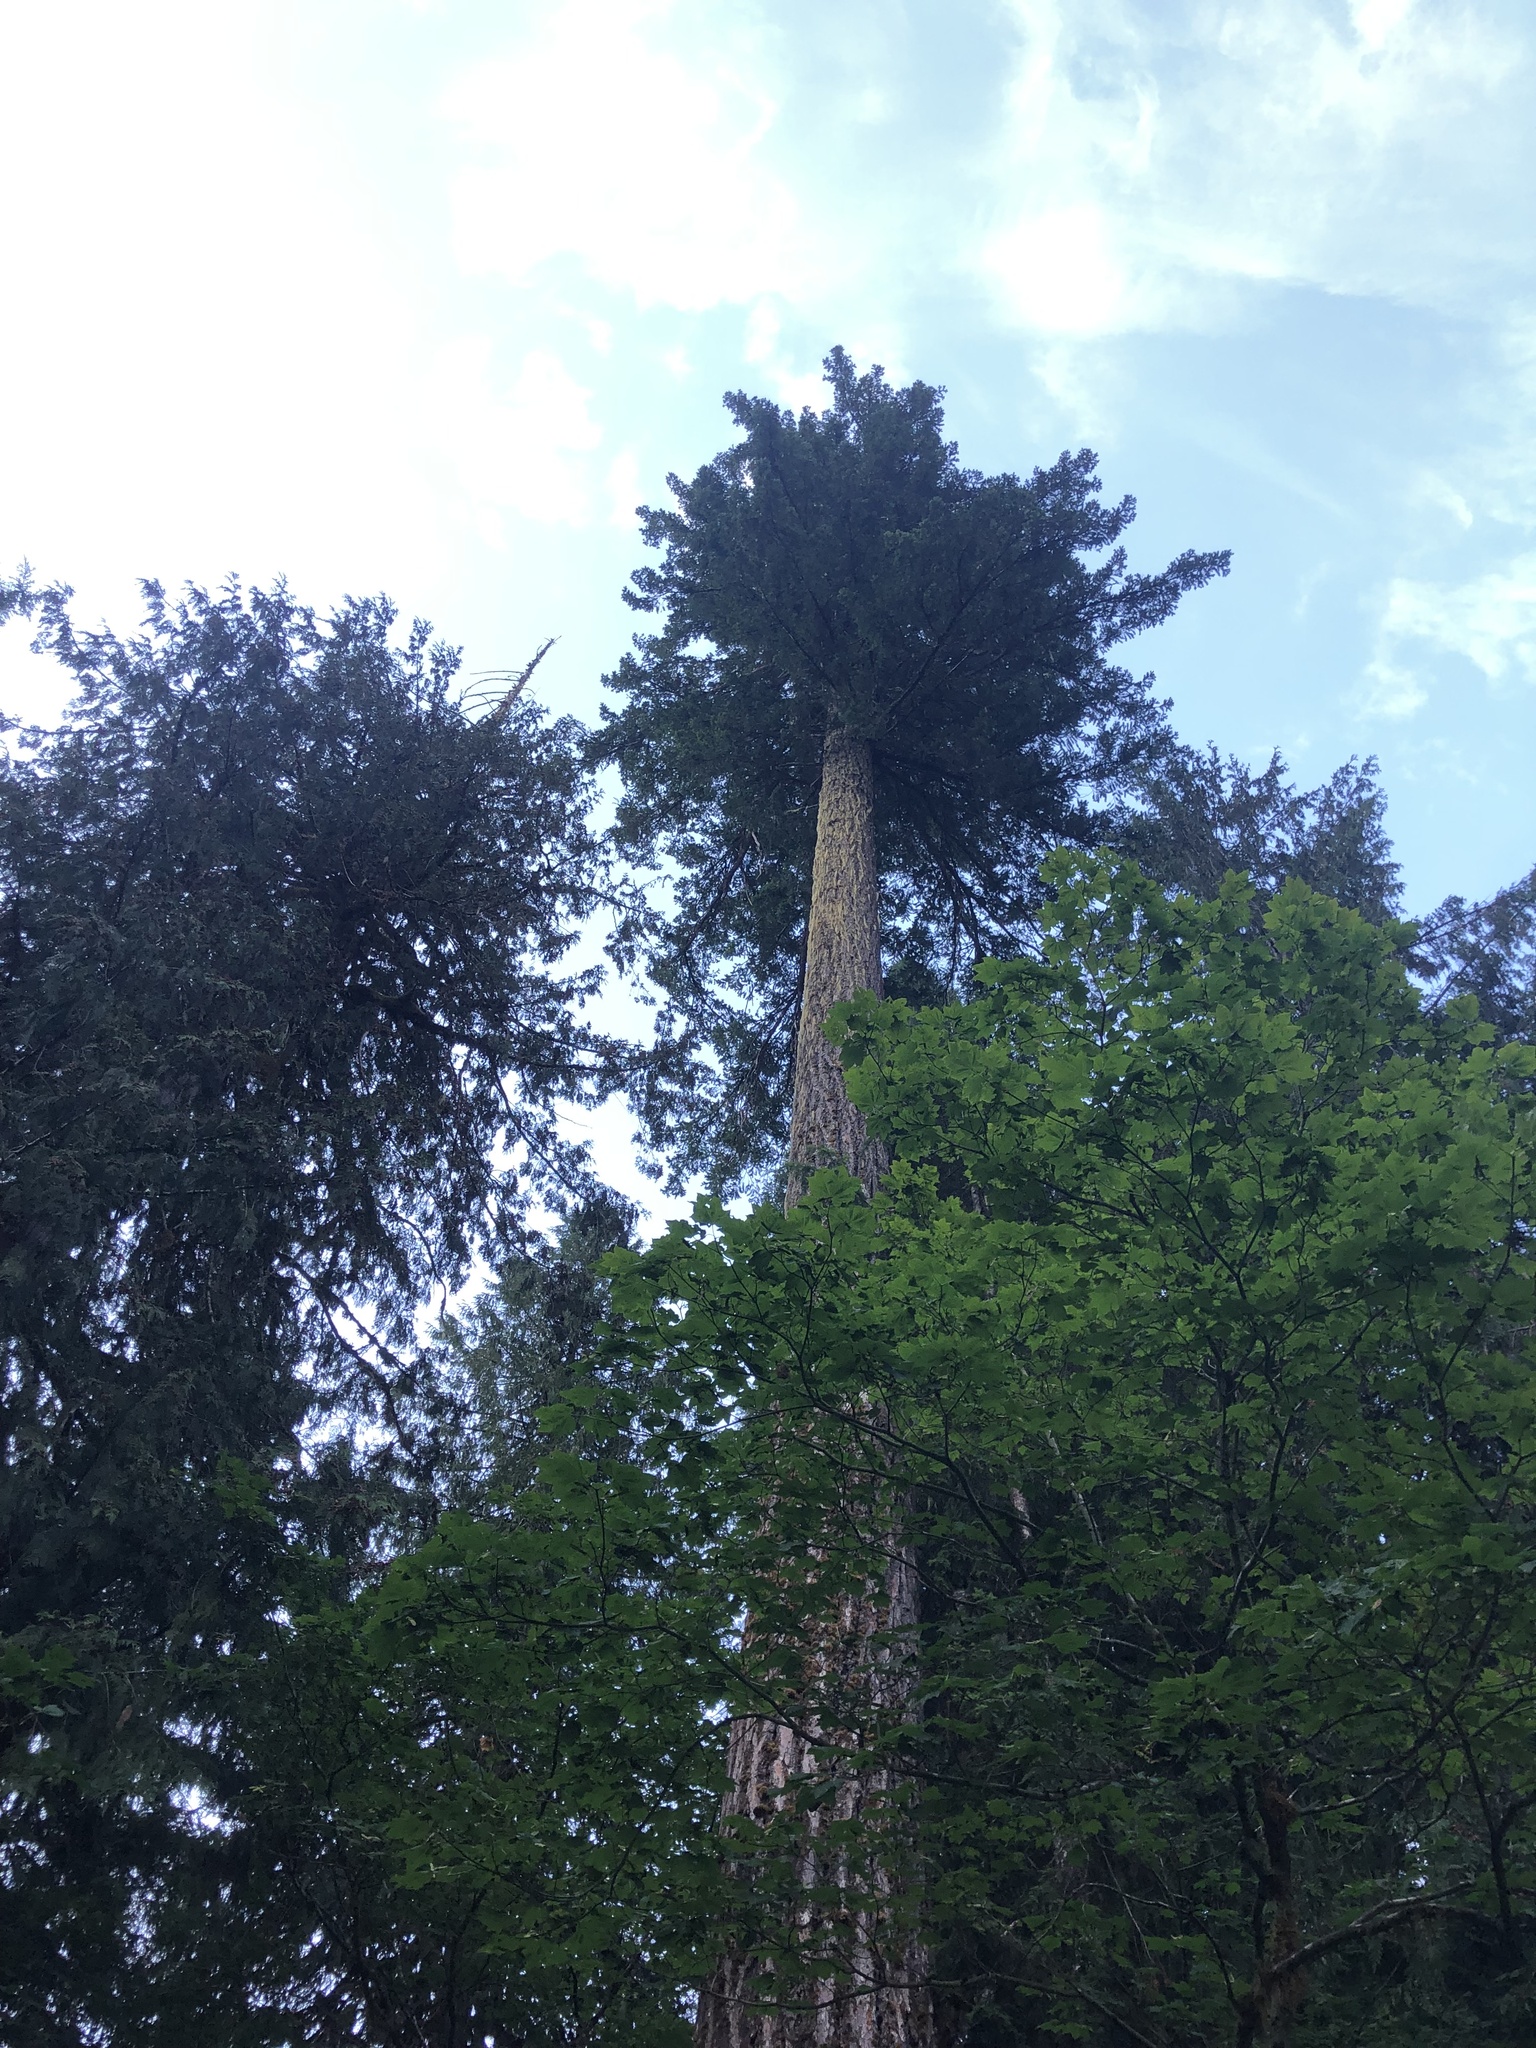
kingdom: Plantae
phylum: Tracheophyta
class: Pinopsida
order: Pinales
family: Pinaceae
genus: Pseudotsuga
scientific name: Pseudotsuga menziesii
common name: Douglas fir
